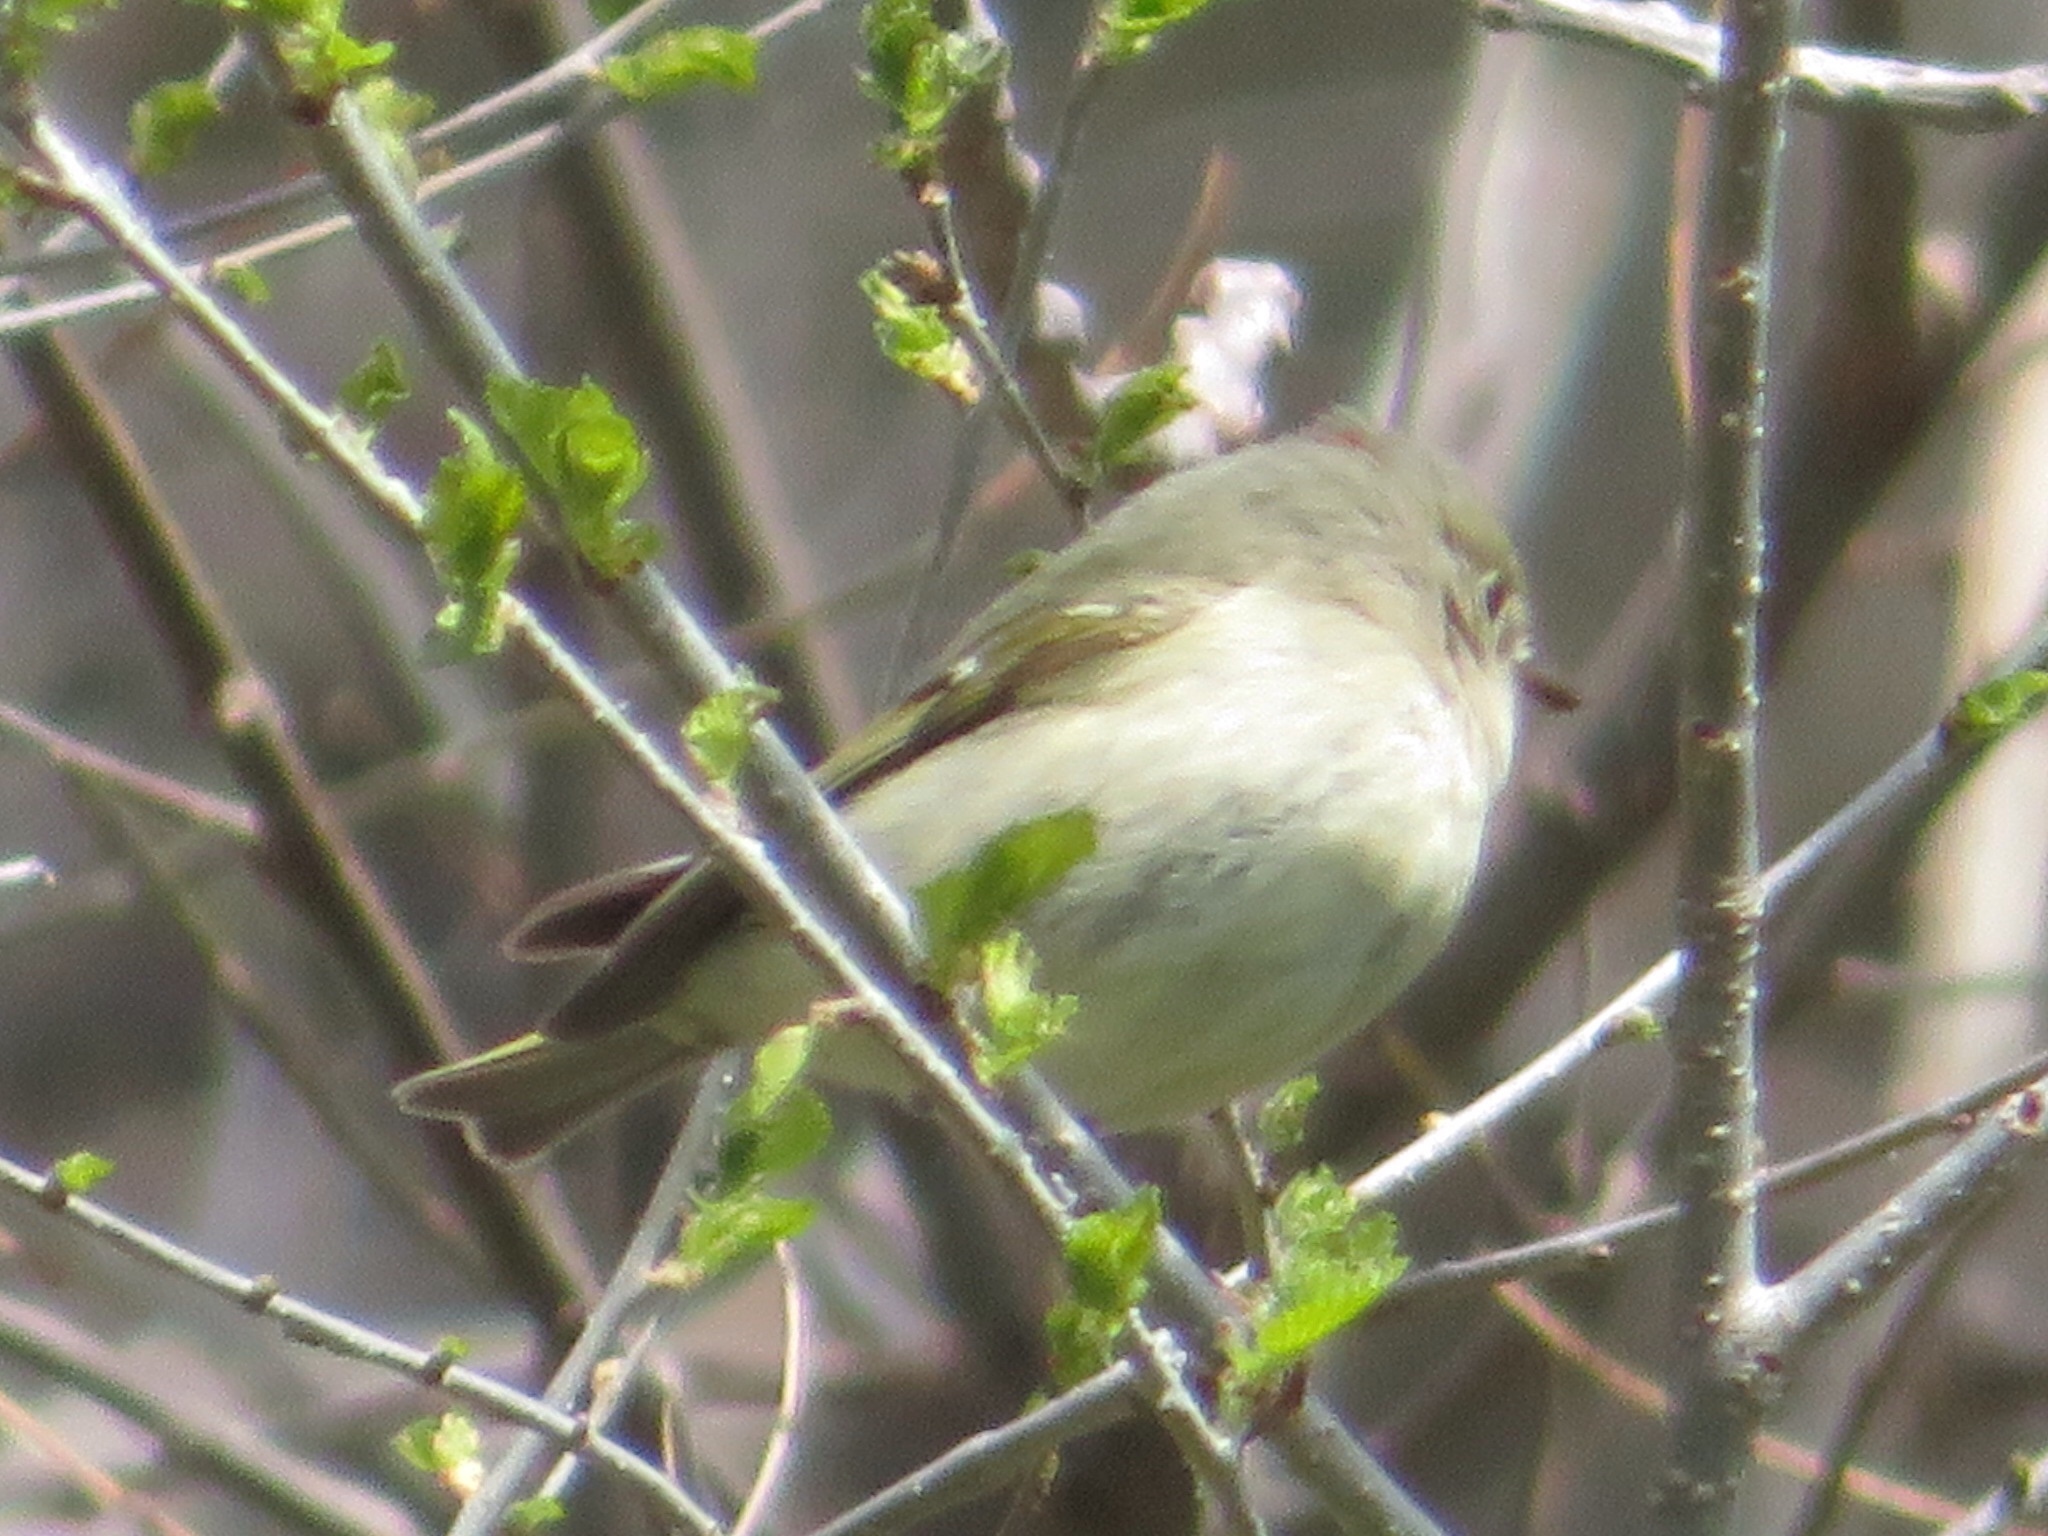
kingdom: Animalia
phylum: Chordata
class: Aves
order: Passeriformes
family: Regulidae
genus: Regulus
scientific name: Regulus calendula
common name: Ruby-crowned kinglet
